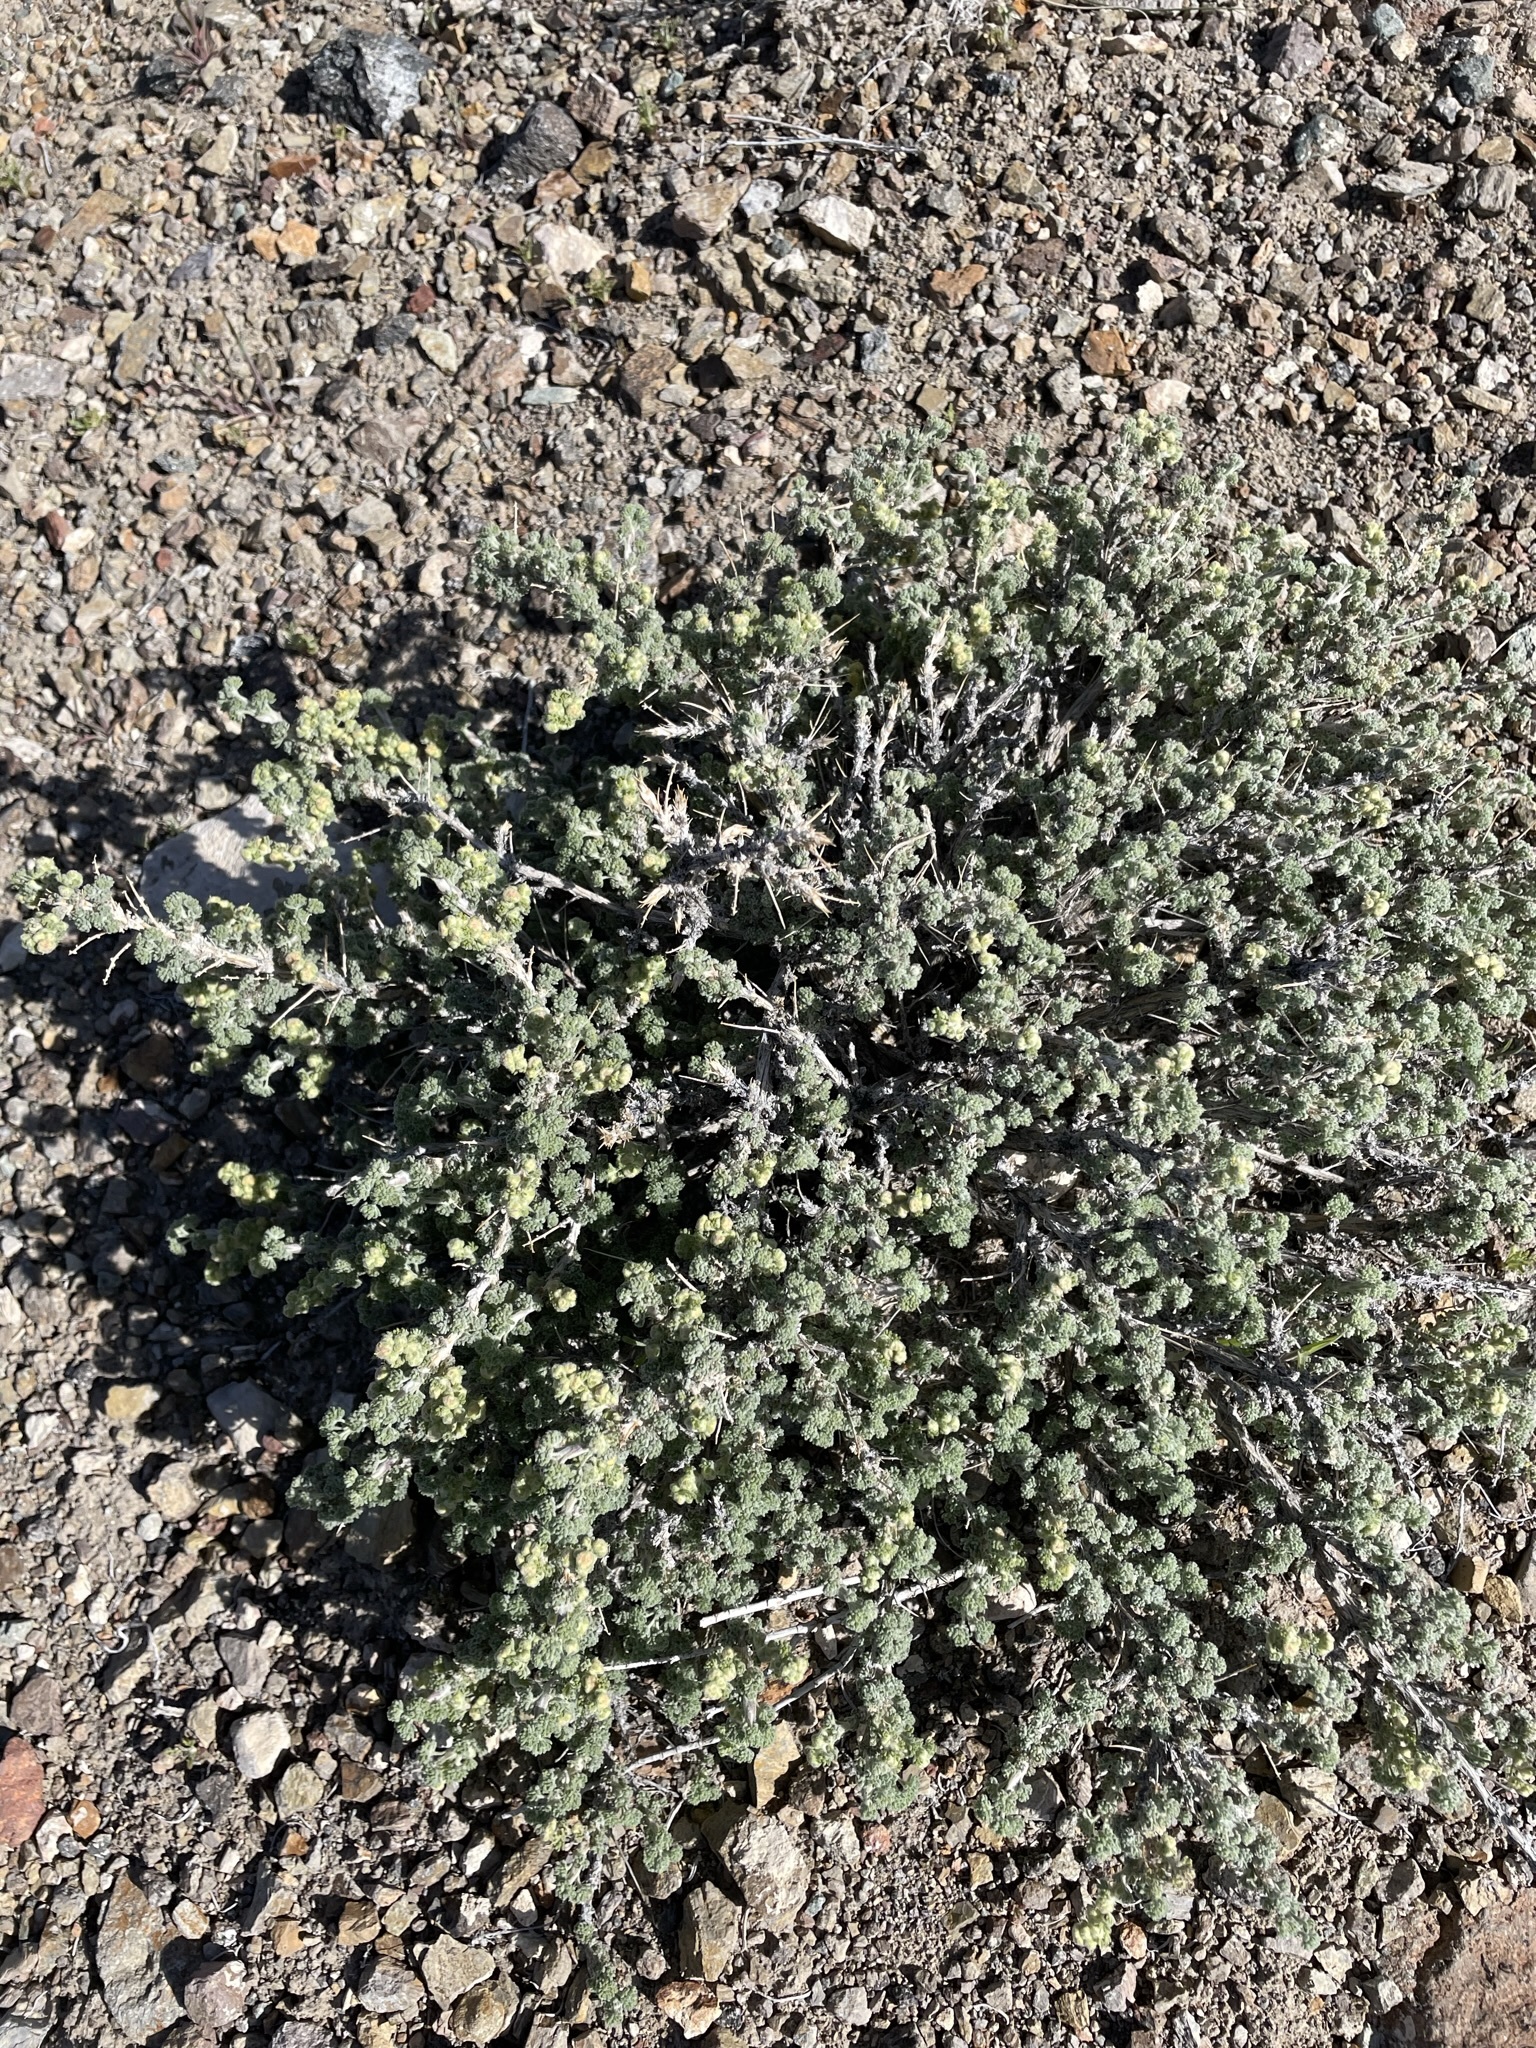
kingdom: Plantae
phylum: Tracheophyta
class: Magnoliopsida
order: Asterales
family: Asteraceae
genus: Artemisia
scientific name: Artemisia spinescens
